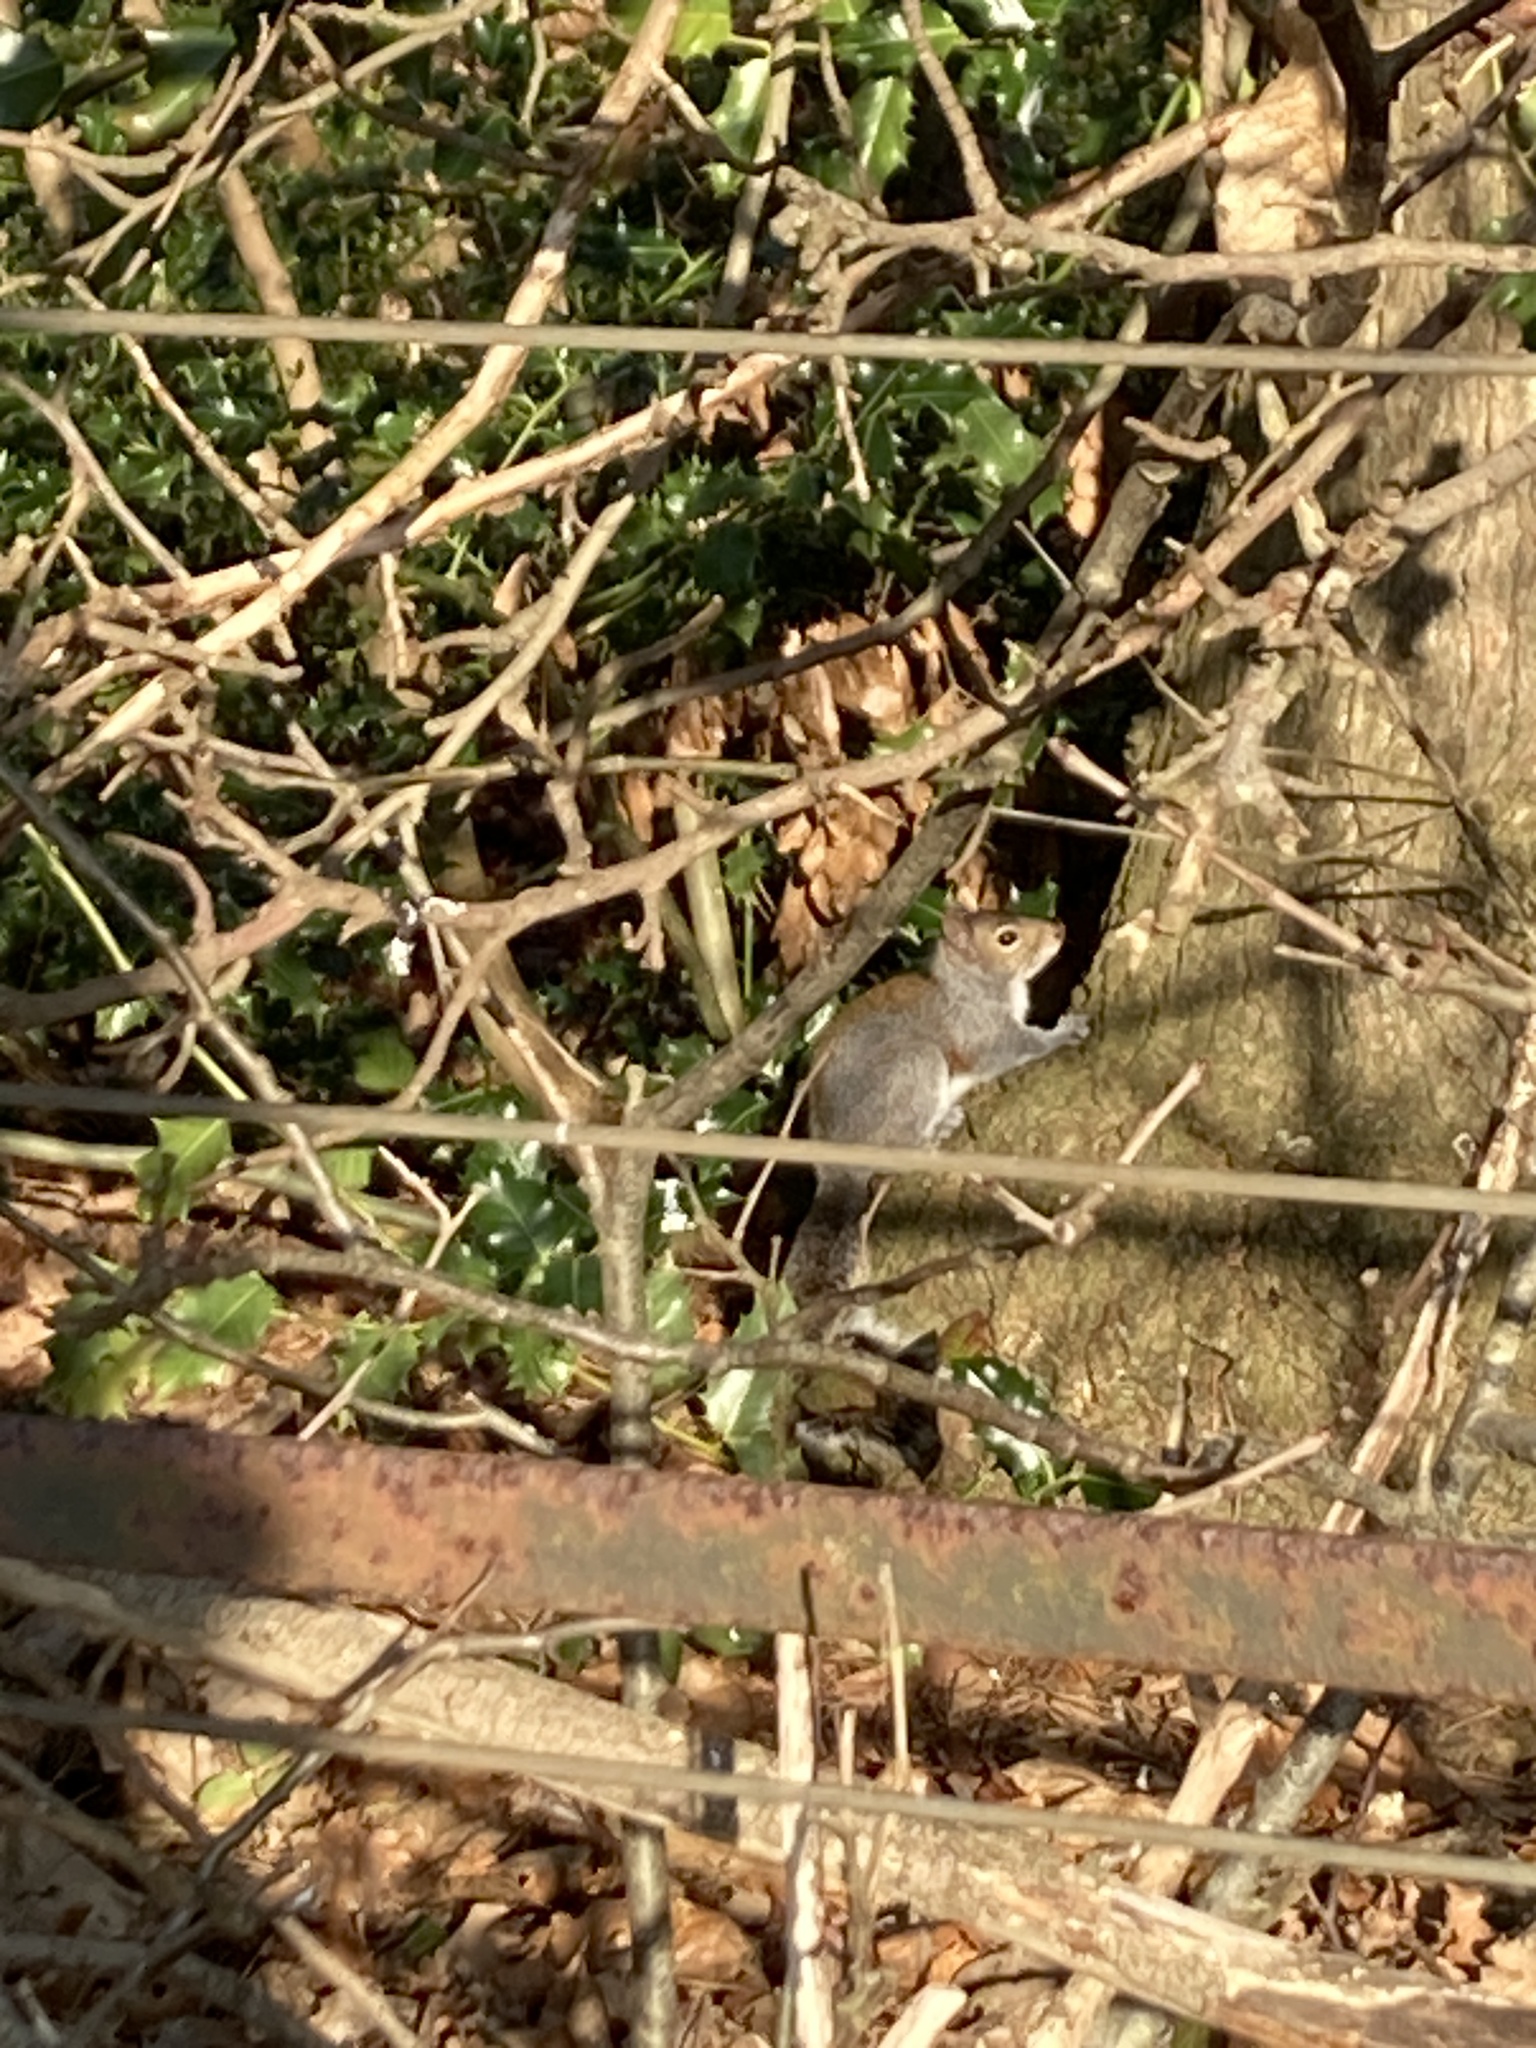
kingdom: Animalia
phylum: Chordata
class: Mammalia
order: Rodentia
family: Sciuridae
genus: Sciurus
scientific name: Sciurus carolinensis
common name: Eastern gray squirrel
